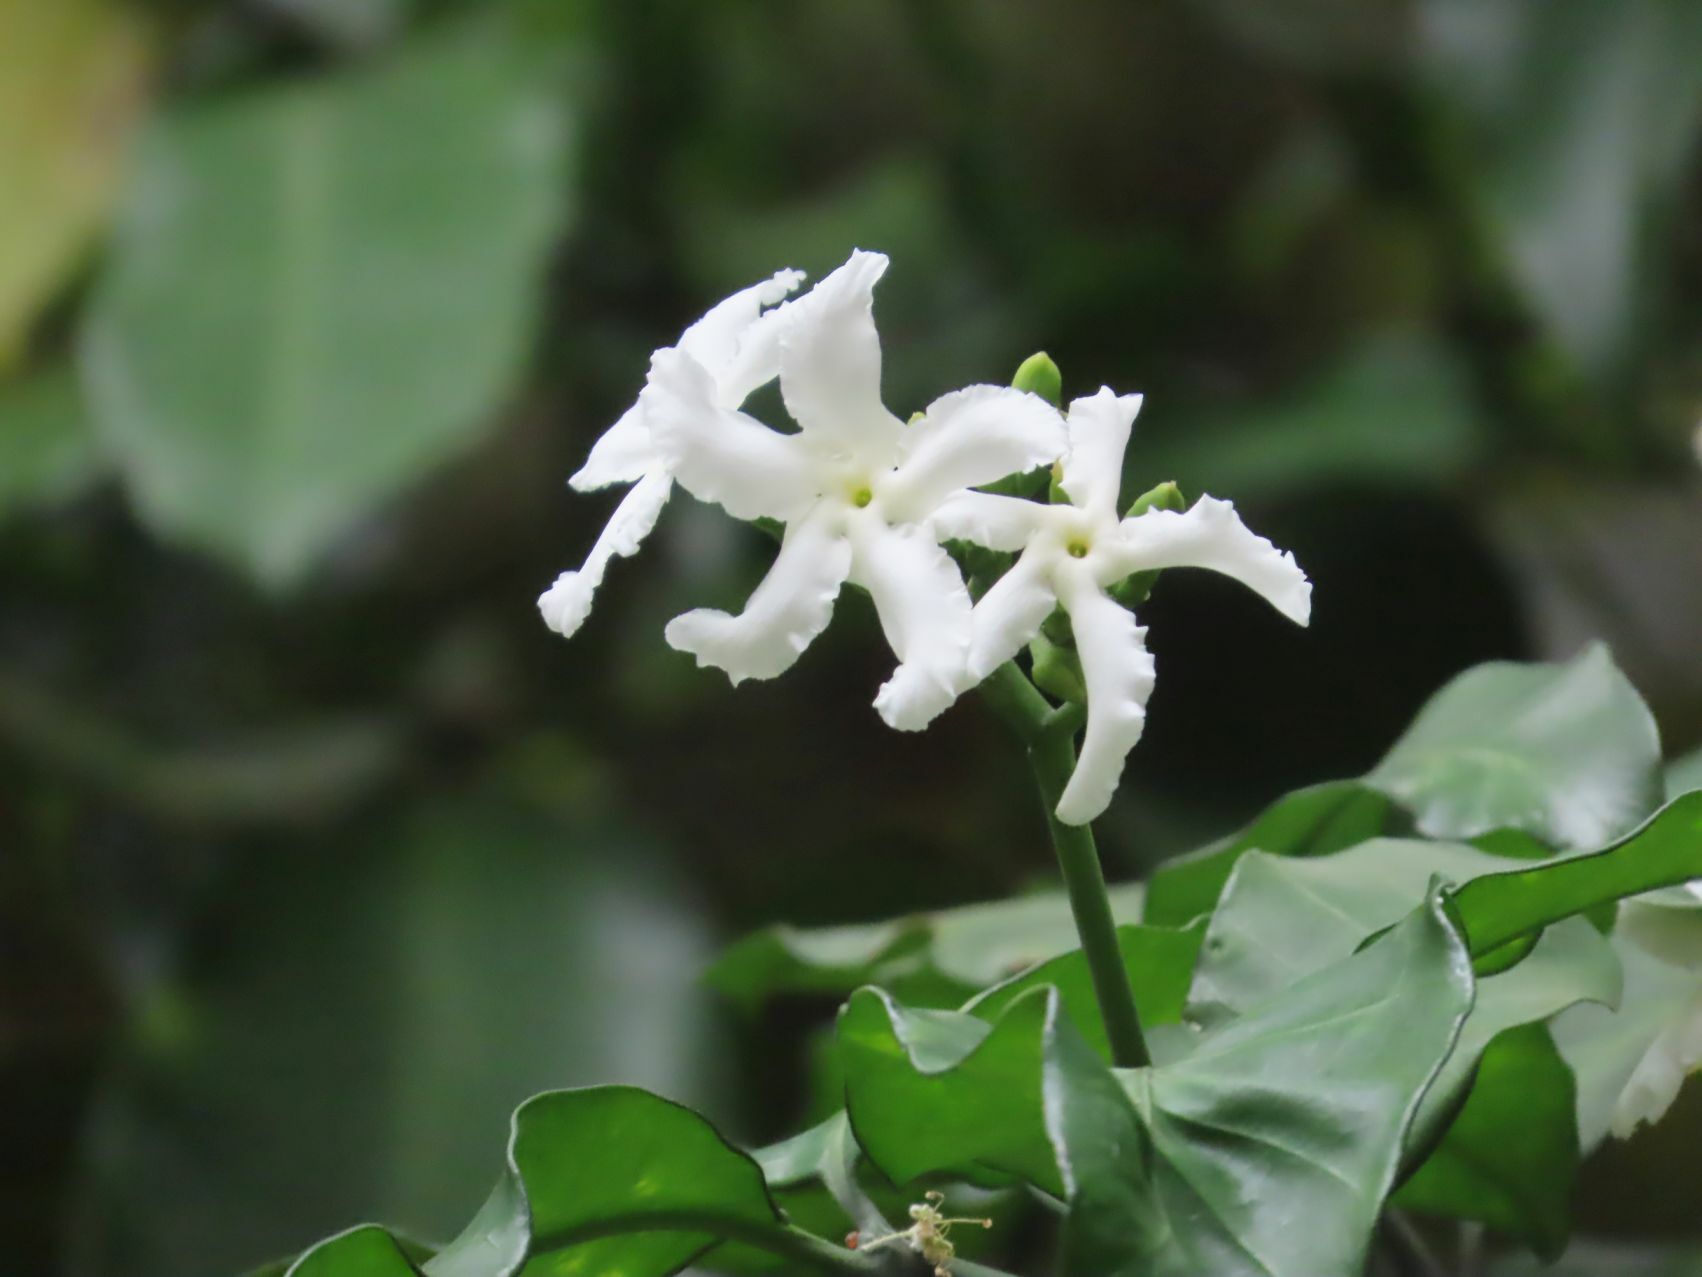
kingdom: Plantae
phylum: Tracheophyta
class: Magnoliopsida
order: Gentianales
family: Apocynaceae
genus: Tabernaemontana
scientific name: Tabernaemontana ventricosa
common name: Forest toad-tree
